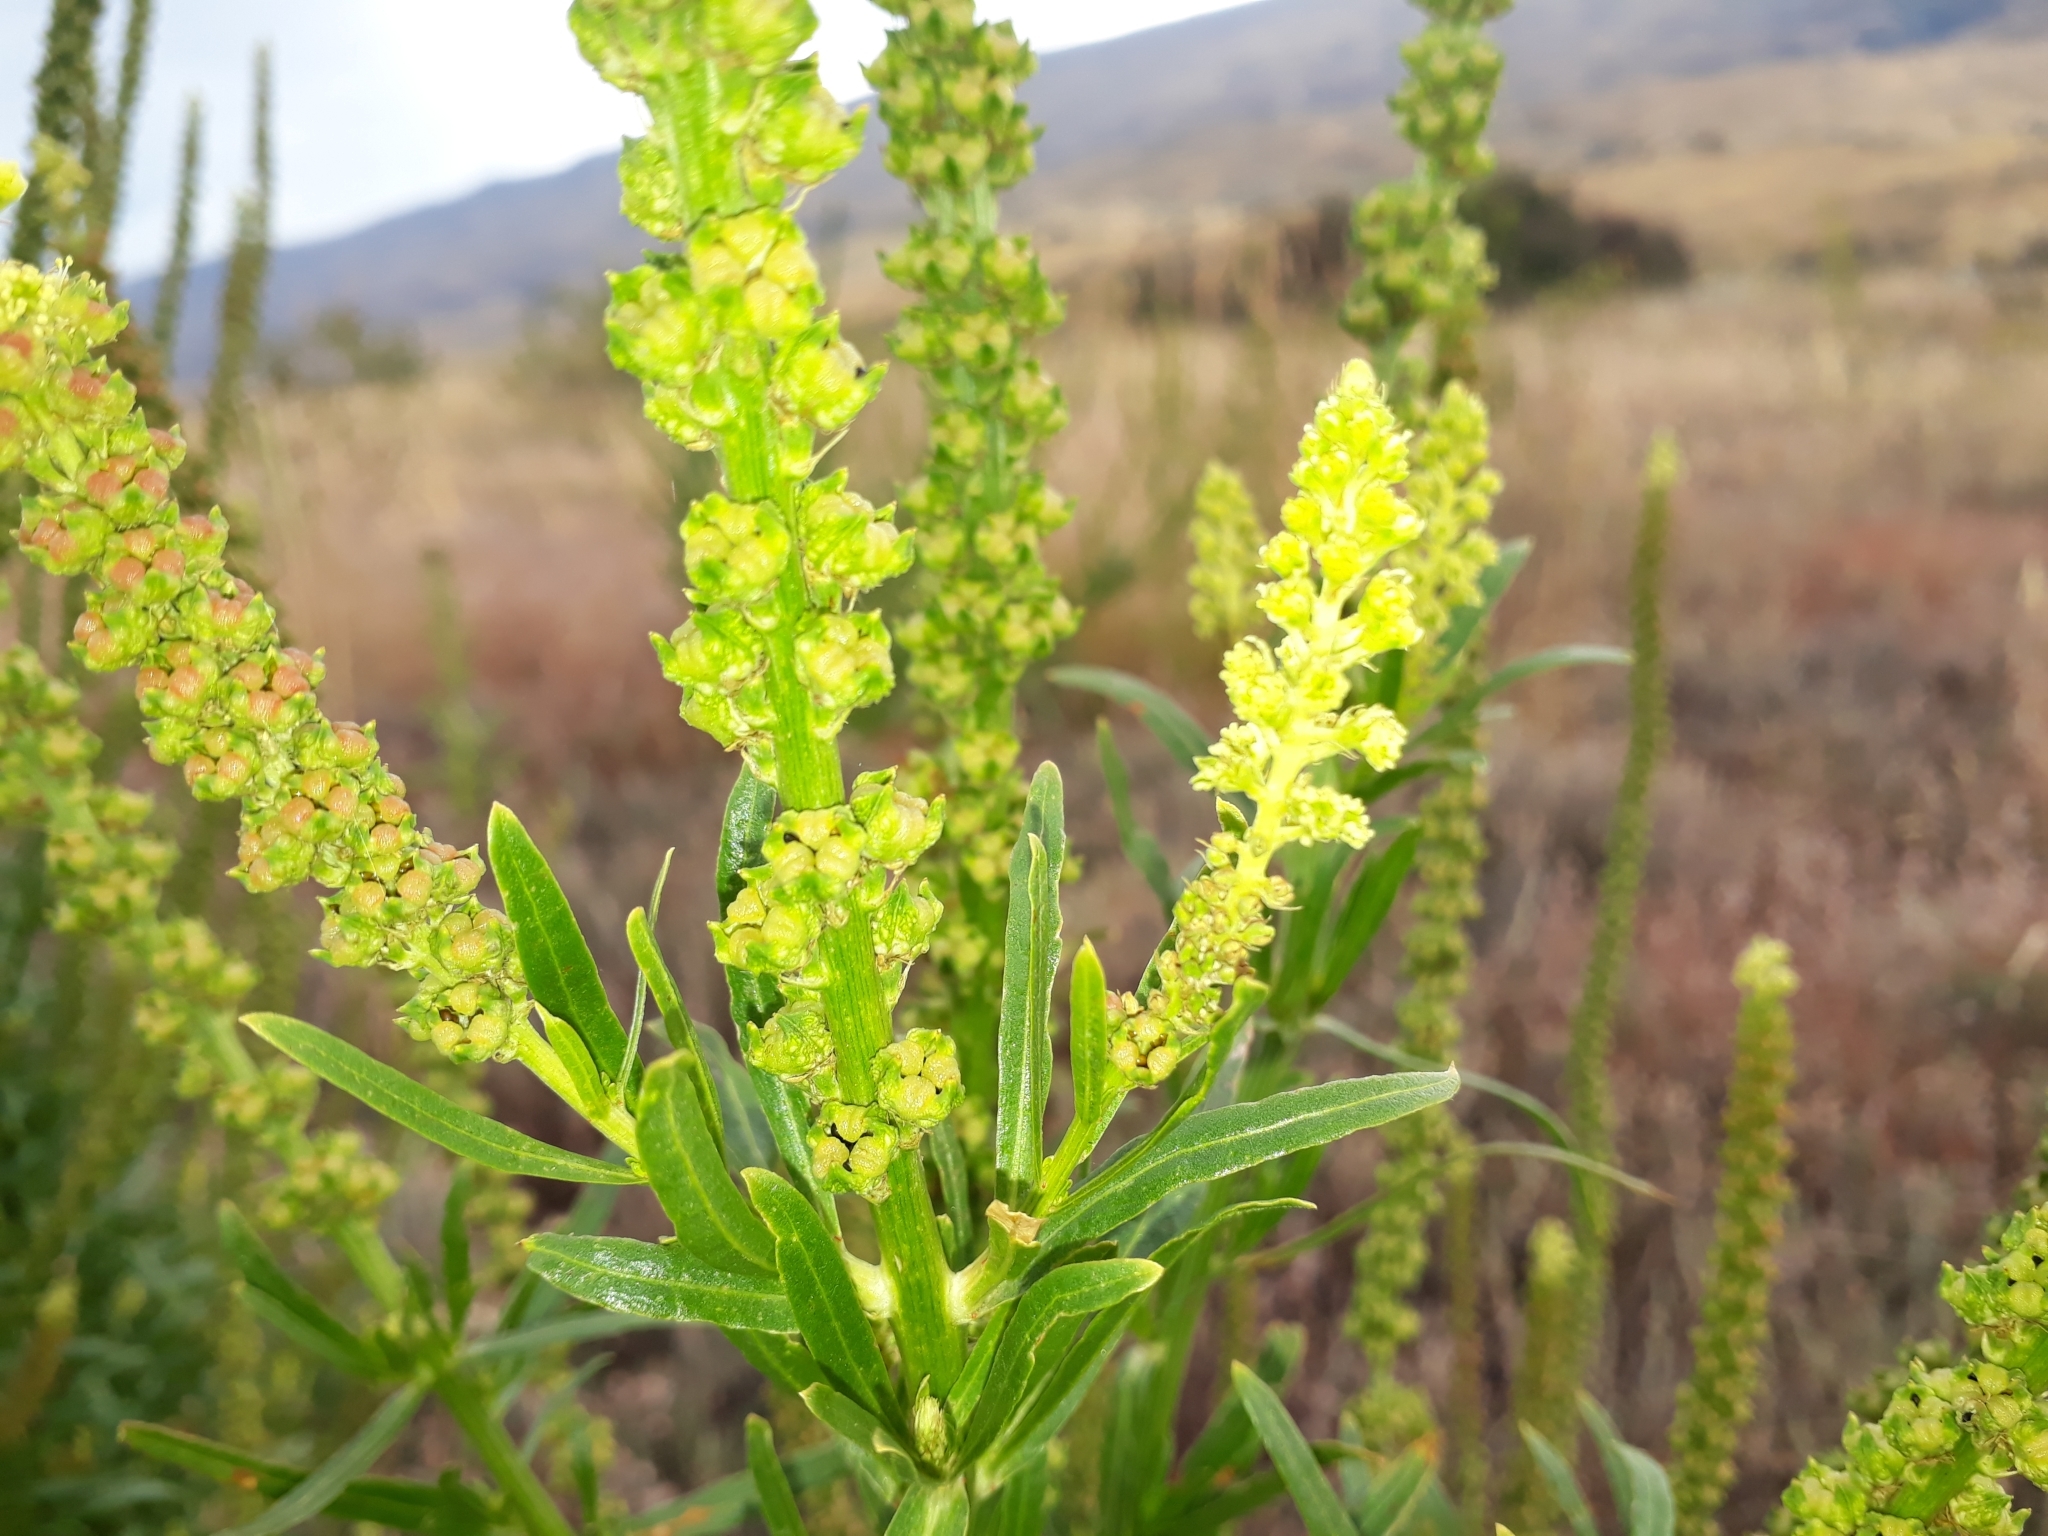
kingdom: Plantae
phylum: Tracheophyta
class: Magnoliopsida
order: Brassicales
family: Resedaceae
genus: Reseda
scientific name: Reseda luteola
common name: Weld
